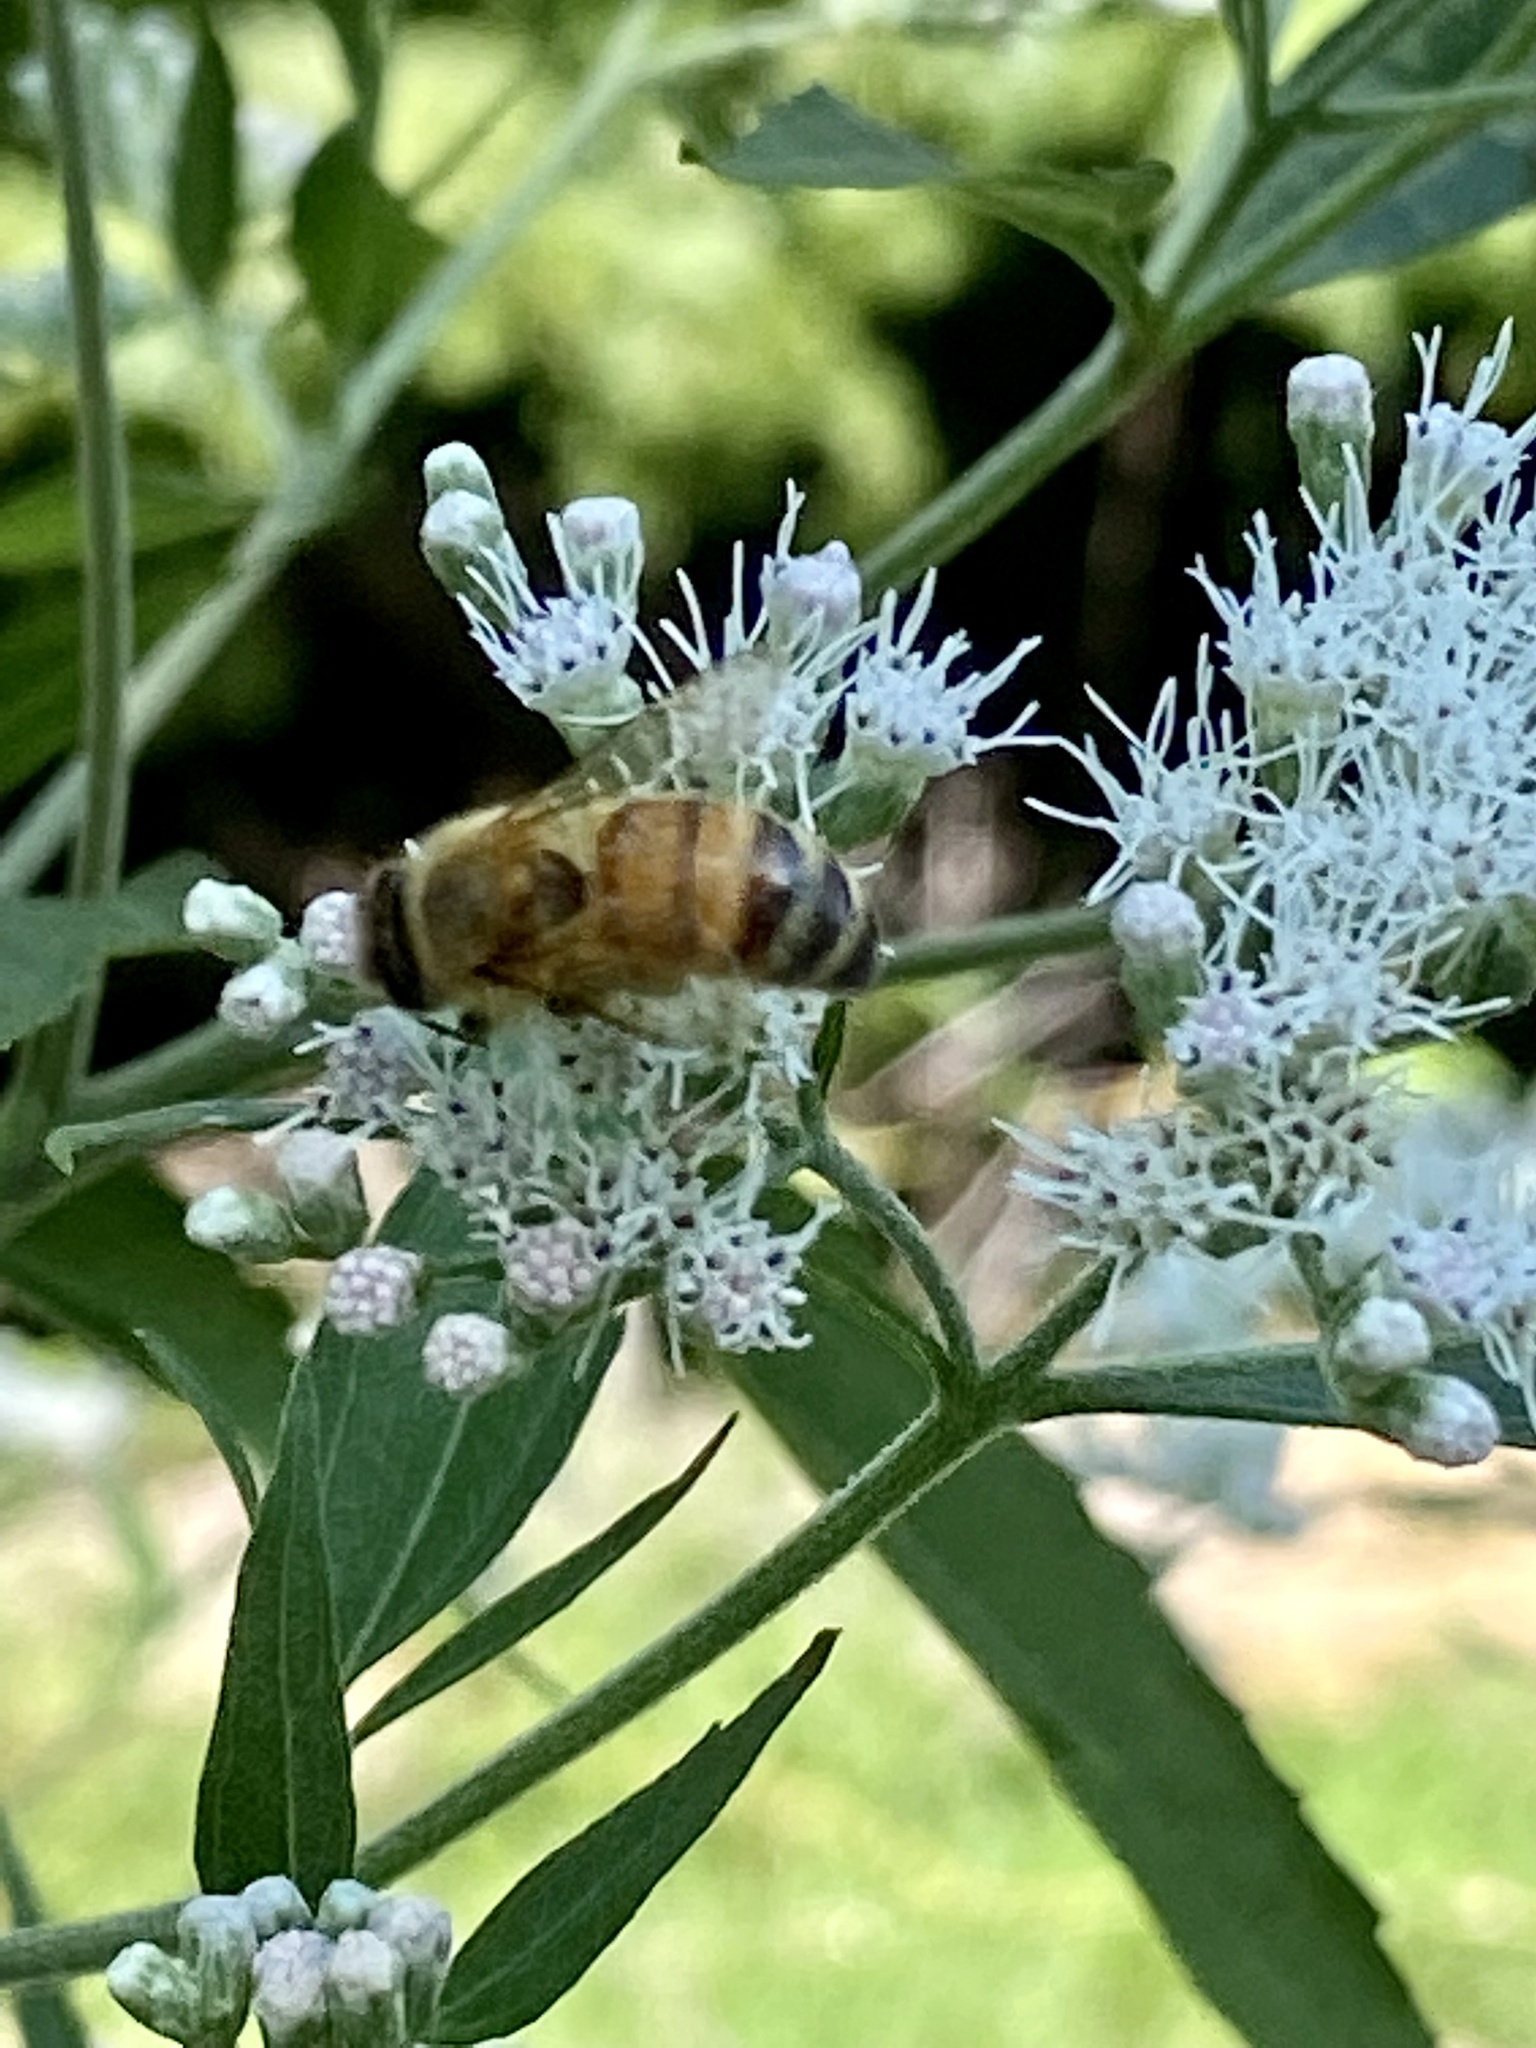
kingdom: Animalia
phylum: Arthropoda
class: Insecta
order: Hymenoptera
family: Apidae
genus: Apis
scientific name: Apis mellifera
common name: Honey bee
